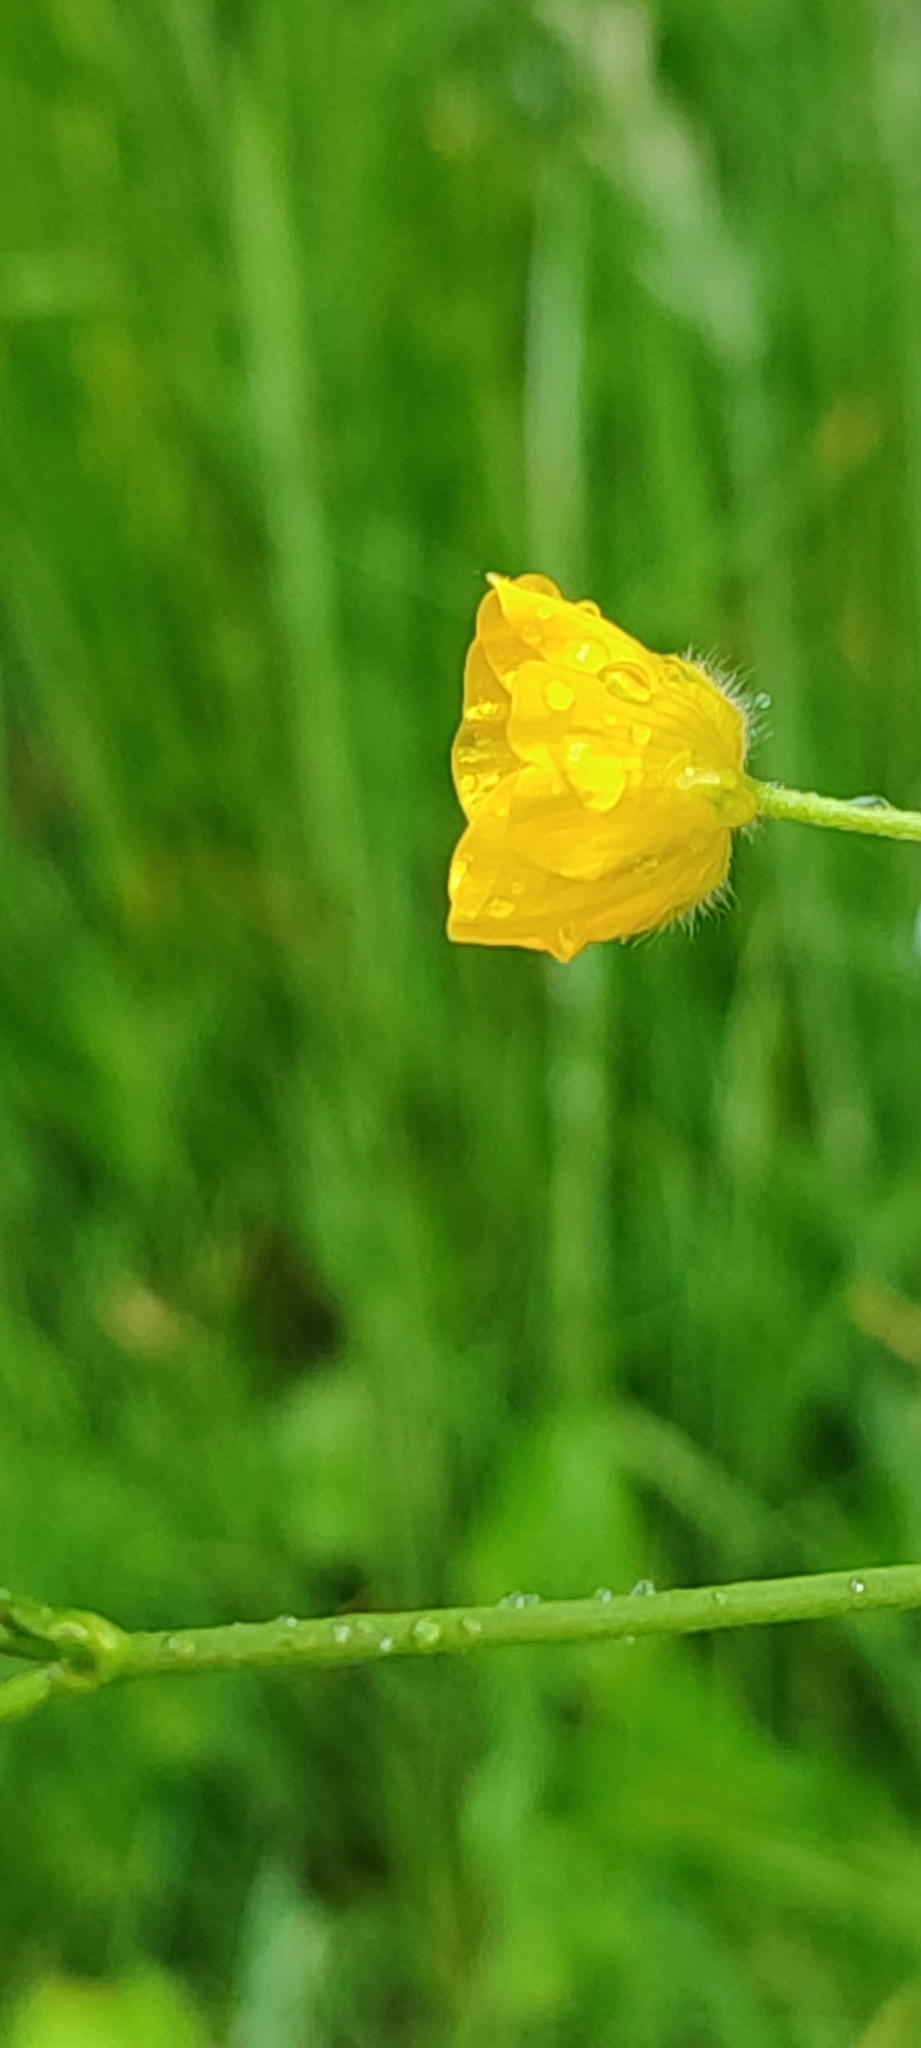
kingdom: Plantae
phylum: Tracheophyta
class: Magnoliopsida
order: Ranunculales
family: Ranunculaceae
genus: Ranunculus
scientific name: Ranunculus acris
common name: Meadow buttercup
